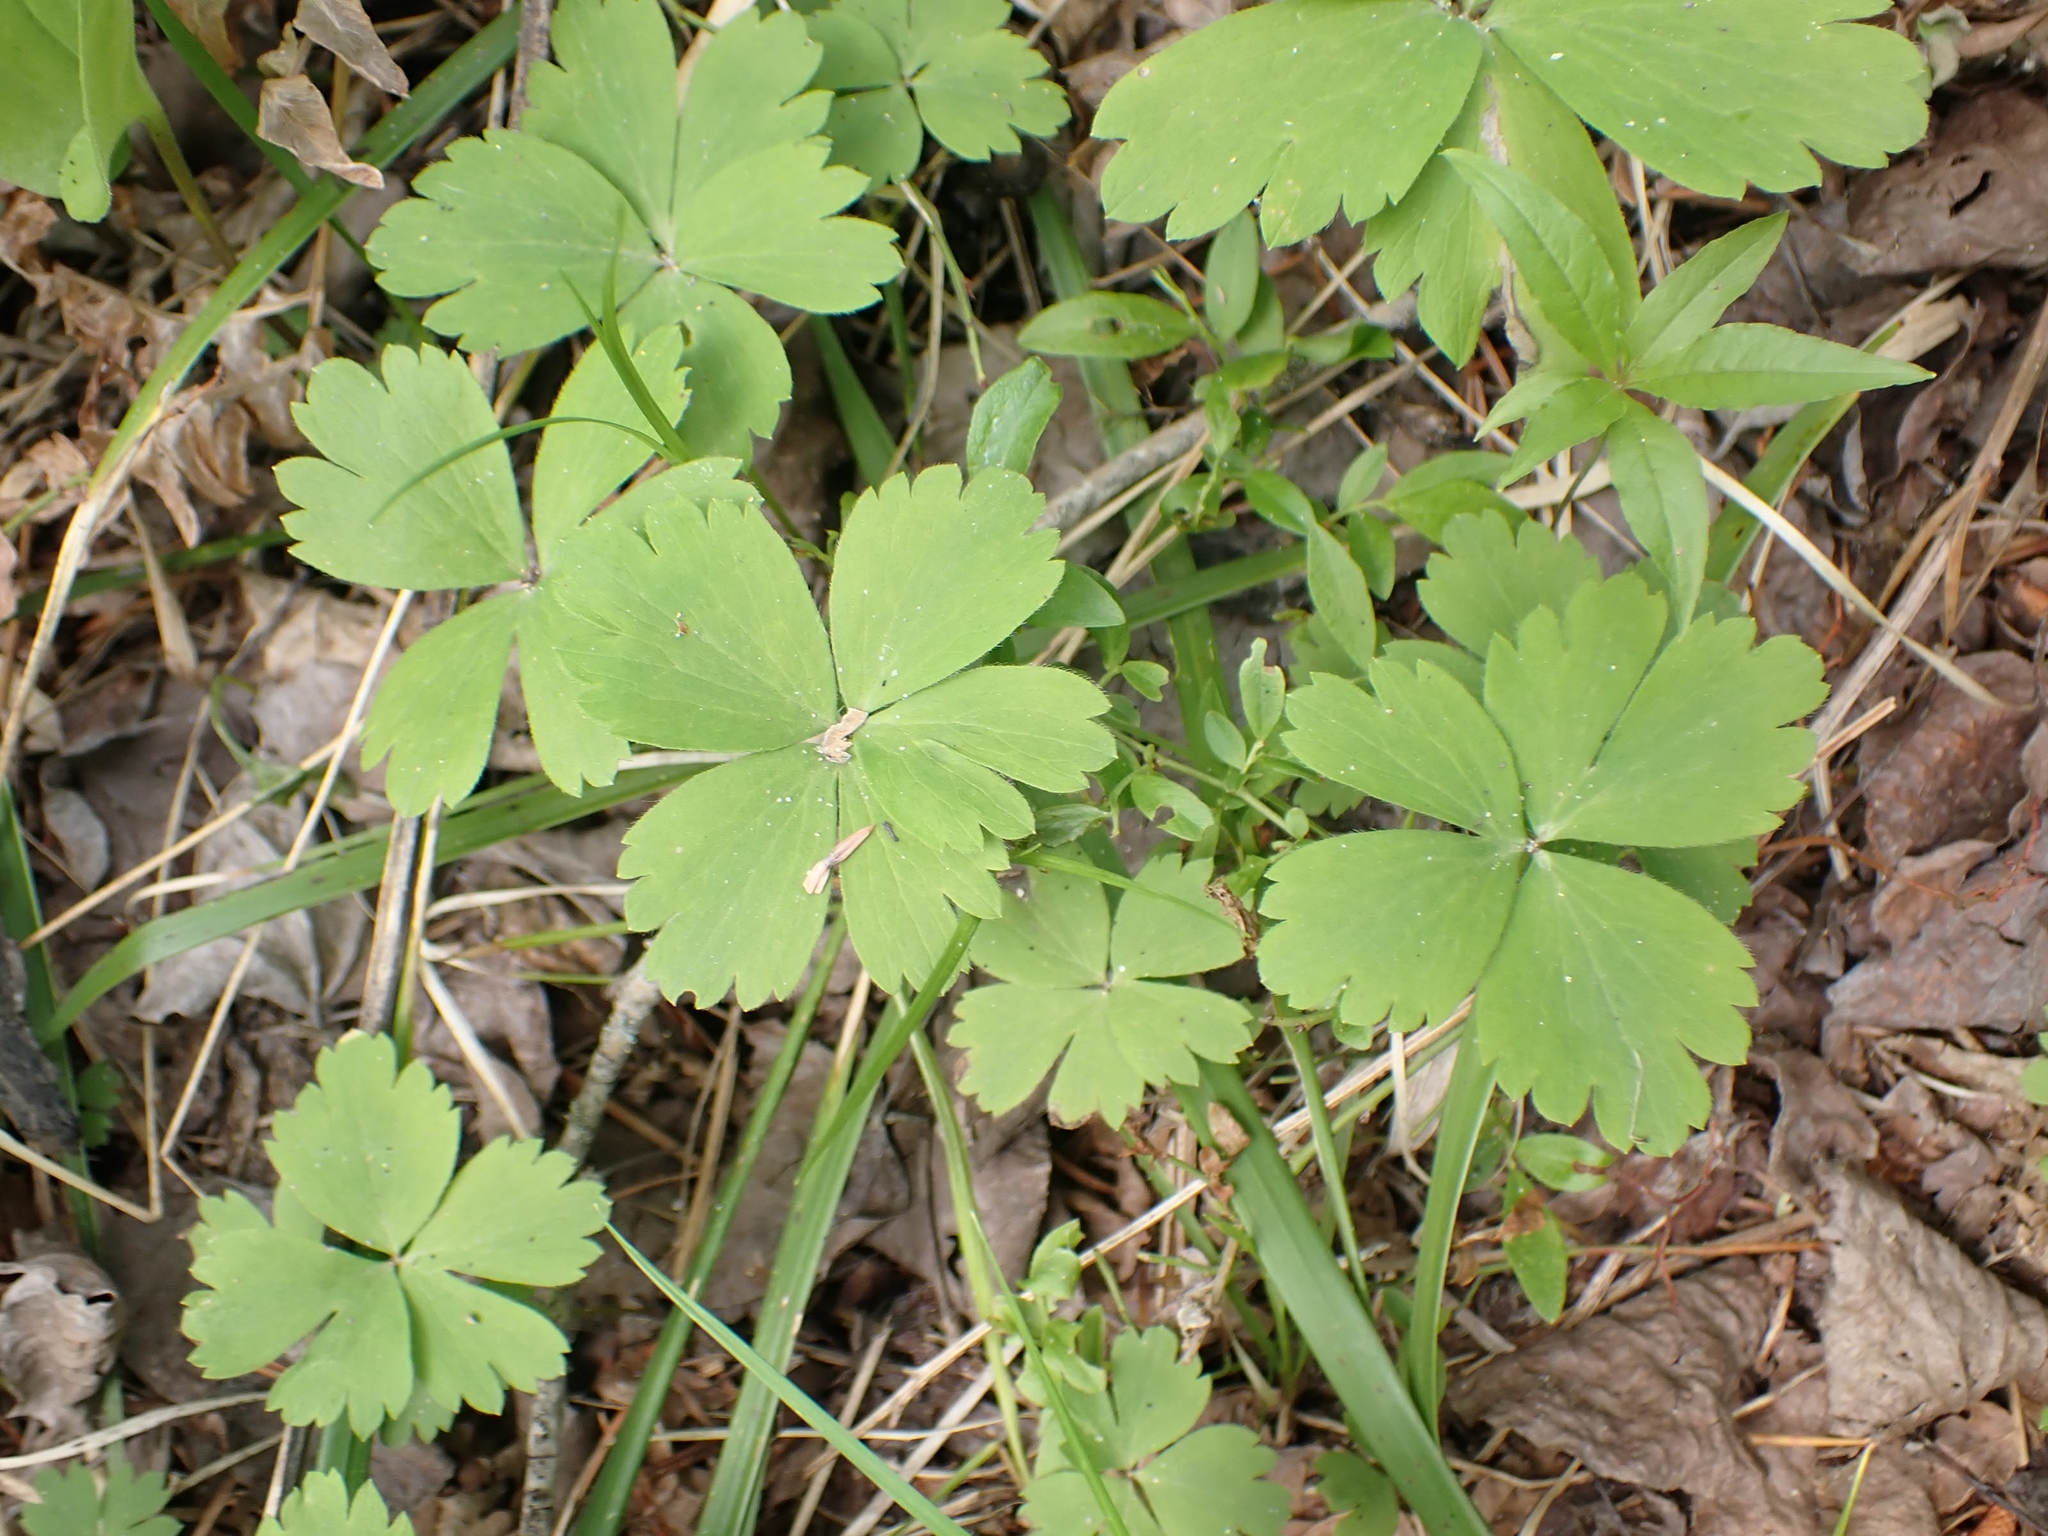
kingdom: Plantae
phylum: Tracheophyta
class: Magnoliopsida
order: Ranunculales
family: Ranunculaceae
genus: Anemone
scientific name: Anemone quinquefolia
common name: Wood anemone
